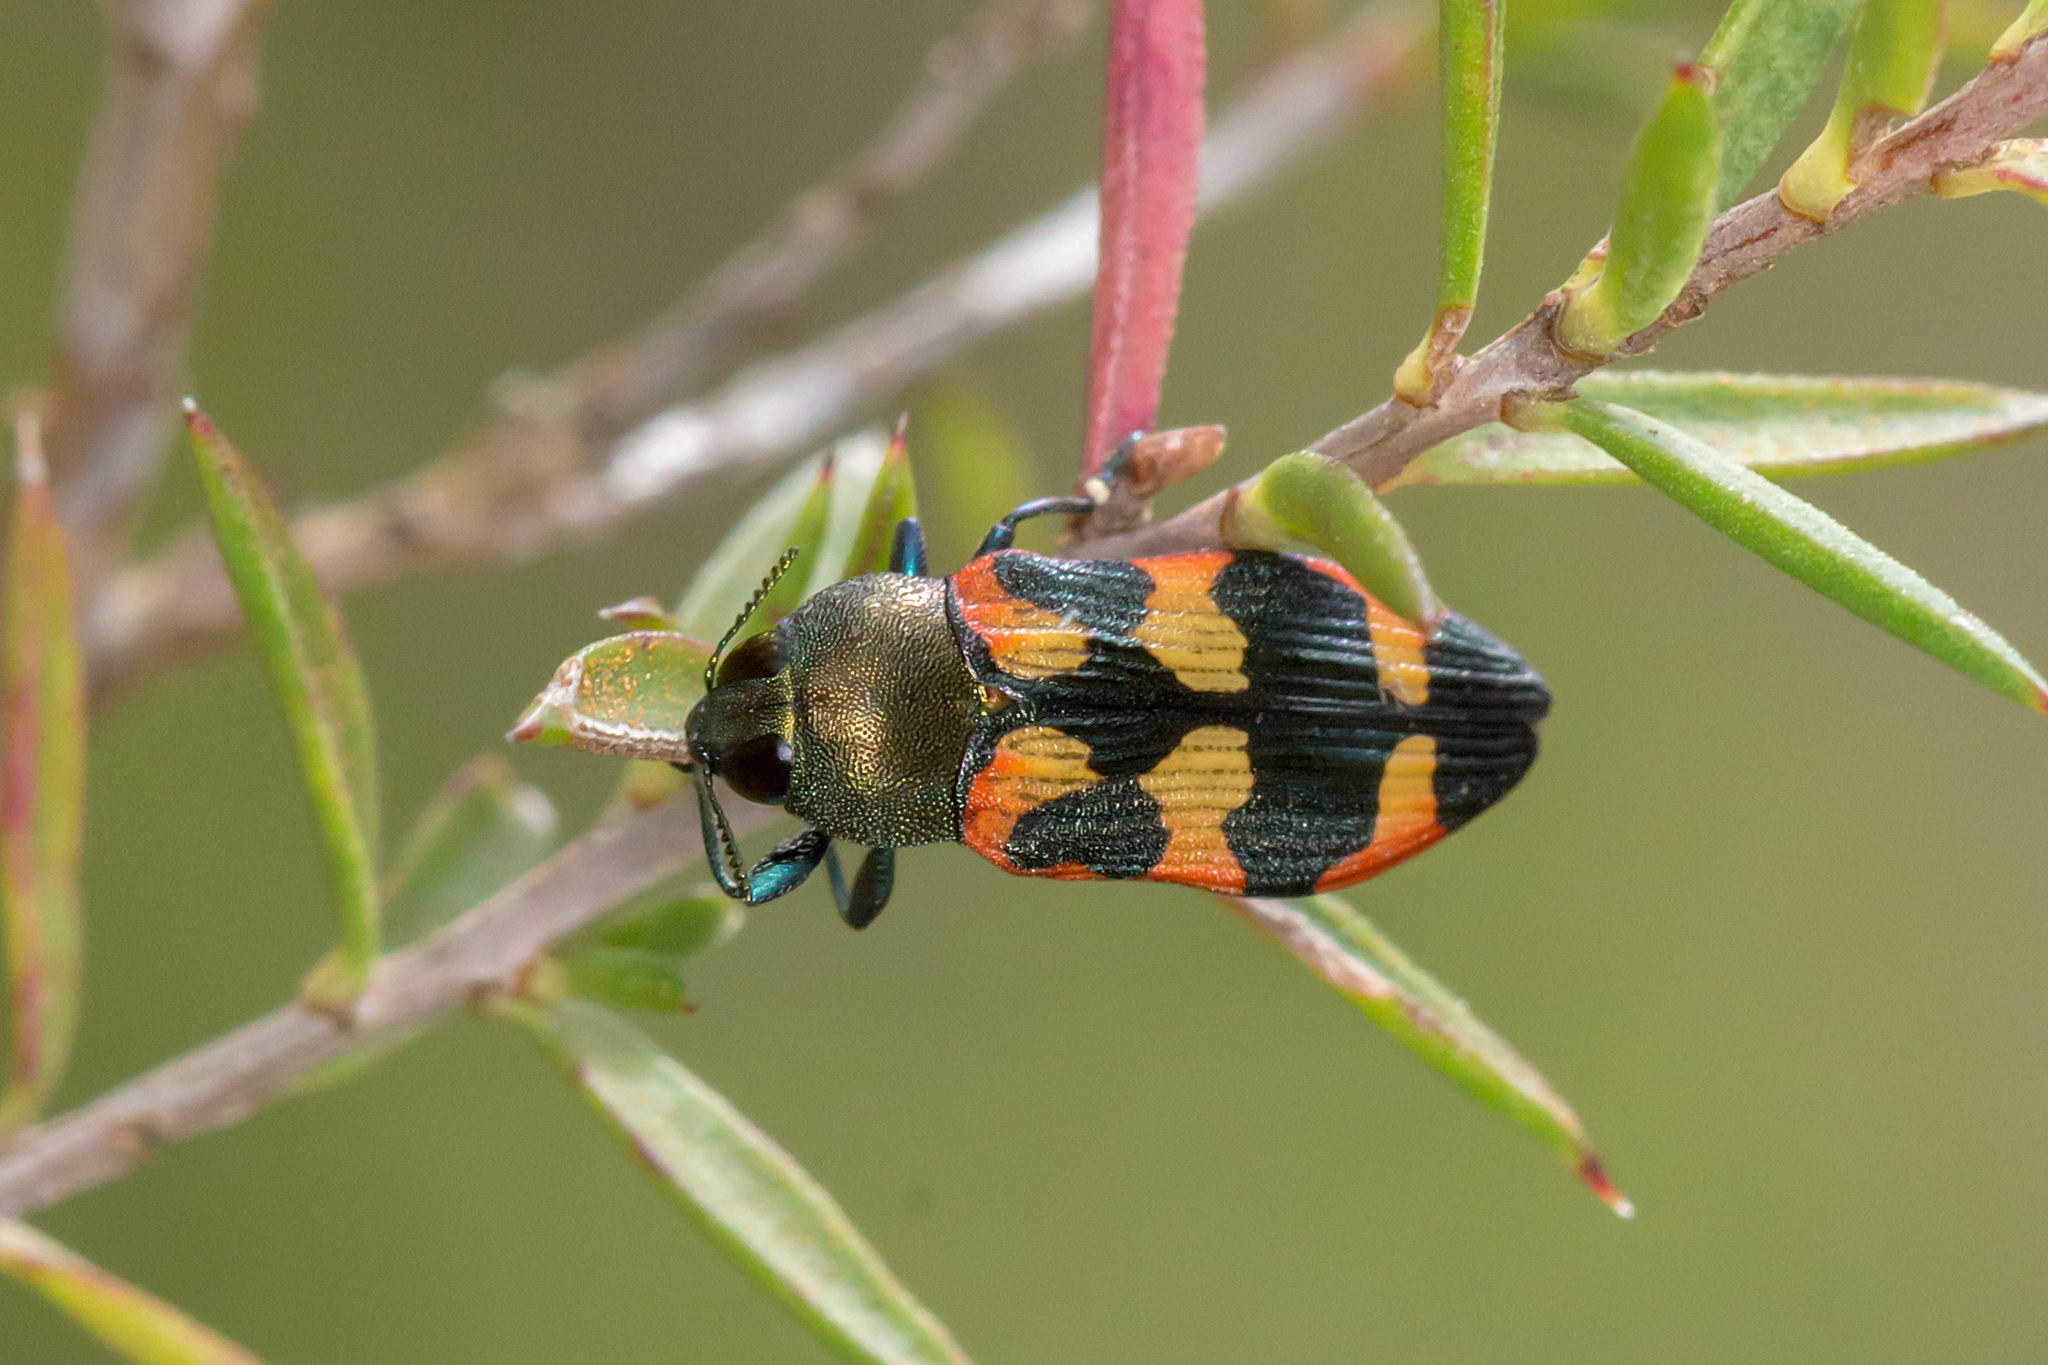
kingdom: Animalia
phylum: Arthropoda
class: Insecta
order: Coleoptera
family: Buprestidae
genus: Castiarina
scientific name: Castiarina sexplagiata
